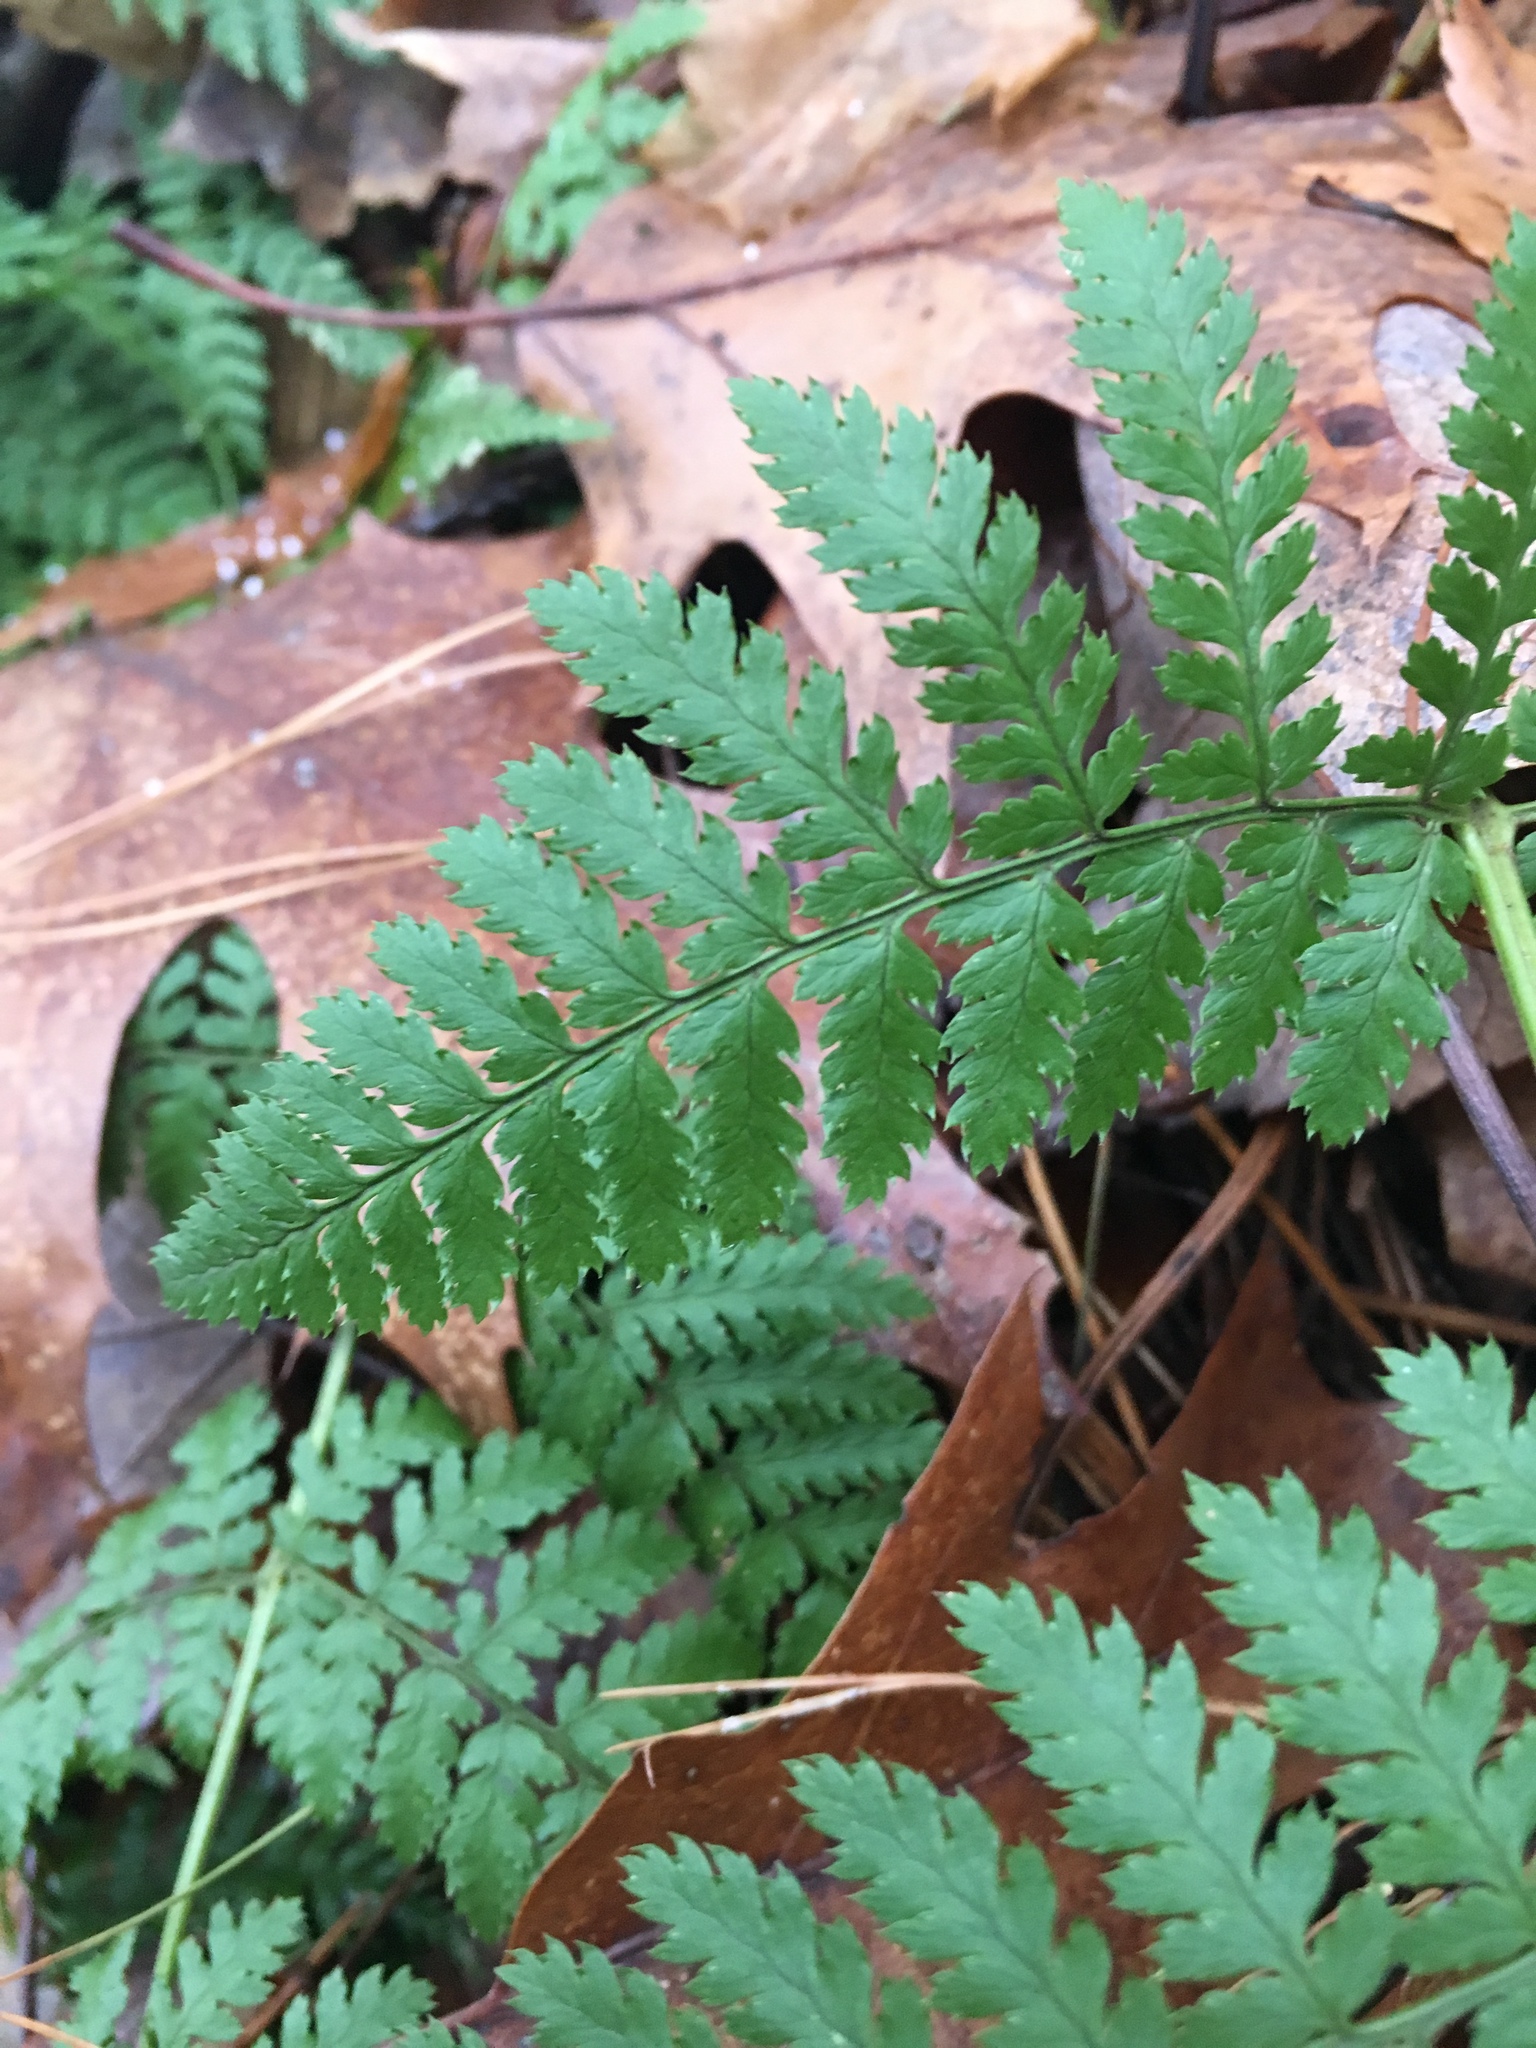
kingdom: Plantae
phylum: Tracheophyta
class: Polypodiopsida
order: Polypodiales
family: Dryopteridaceae
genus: Dryopteris
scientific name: Dryopteris intermedia
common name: Evergreen wood fern
